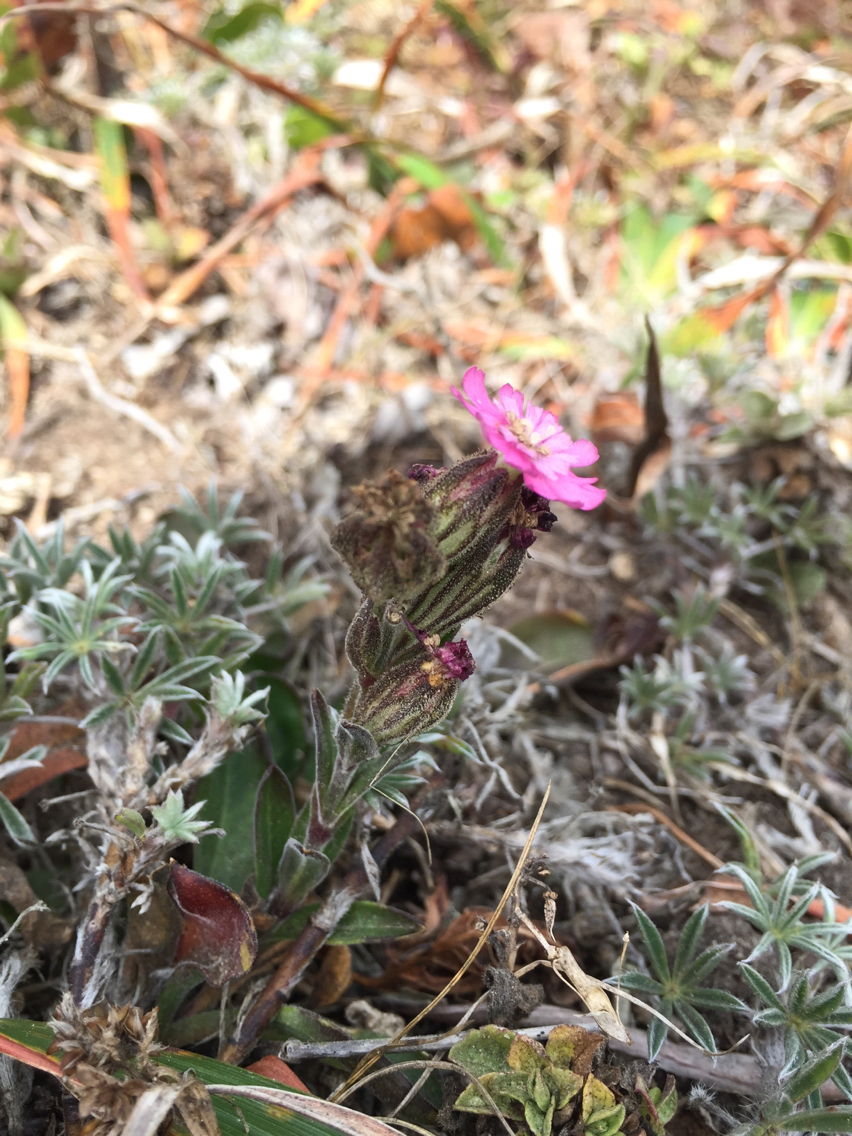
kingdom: Plantae
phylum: Tracheophyta
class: Magnoliopsida
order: Caryophyllales
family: Caryophyllaceae
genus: Silene
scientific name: Silene scouleri
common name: Scouler's campion
